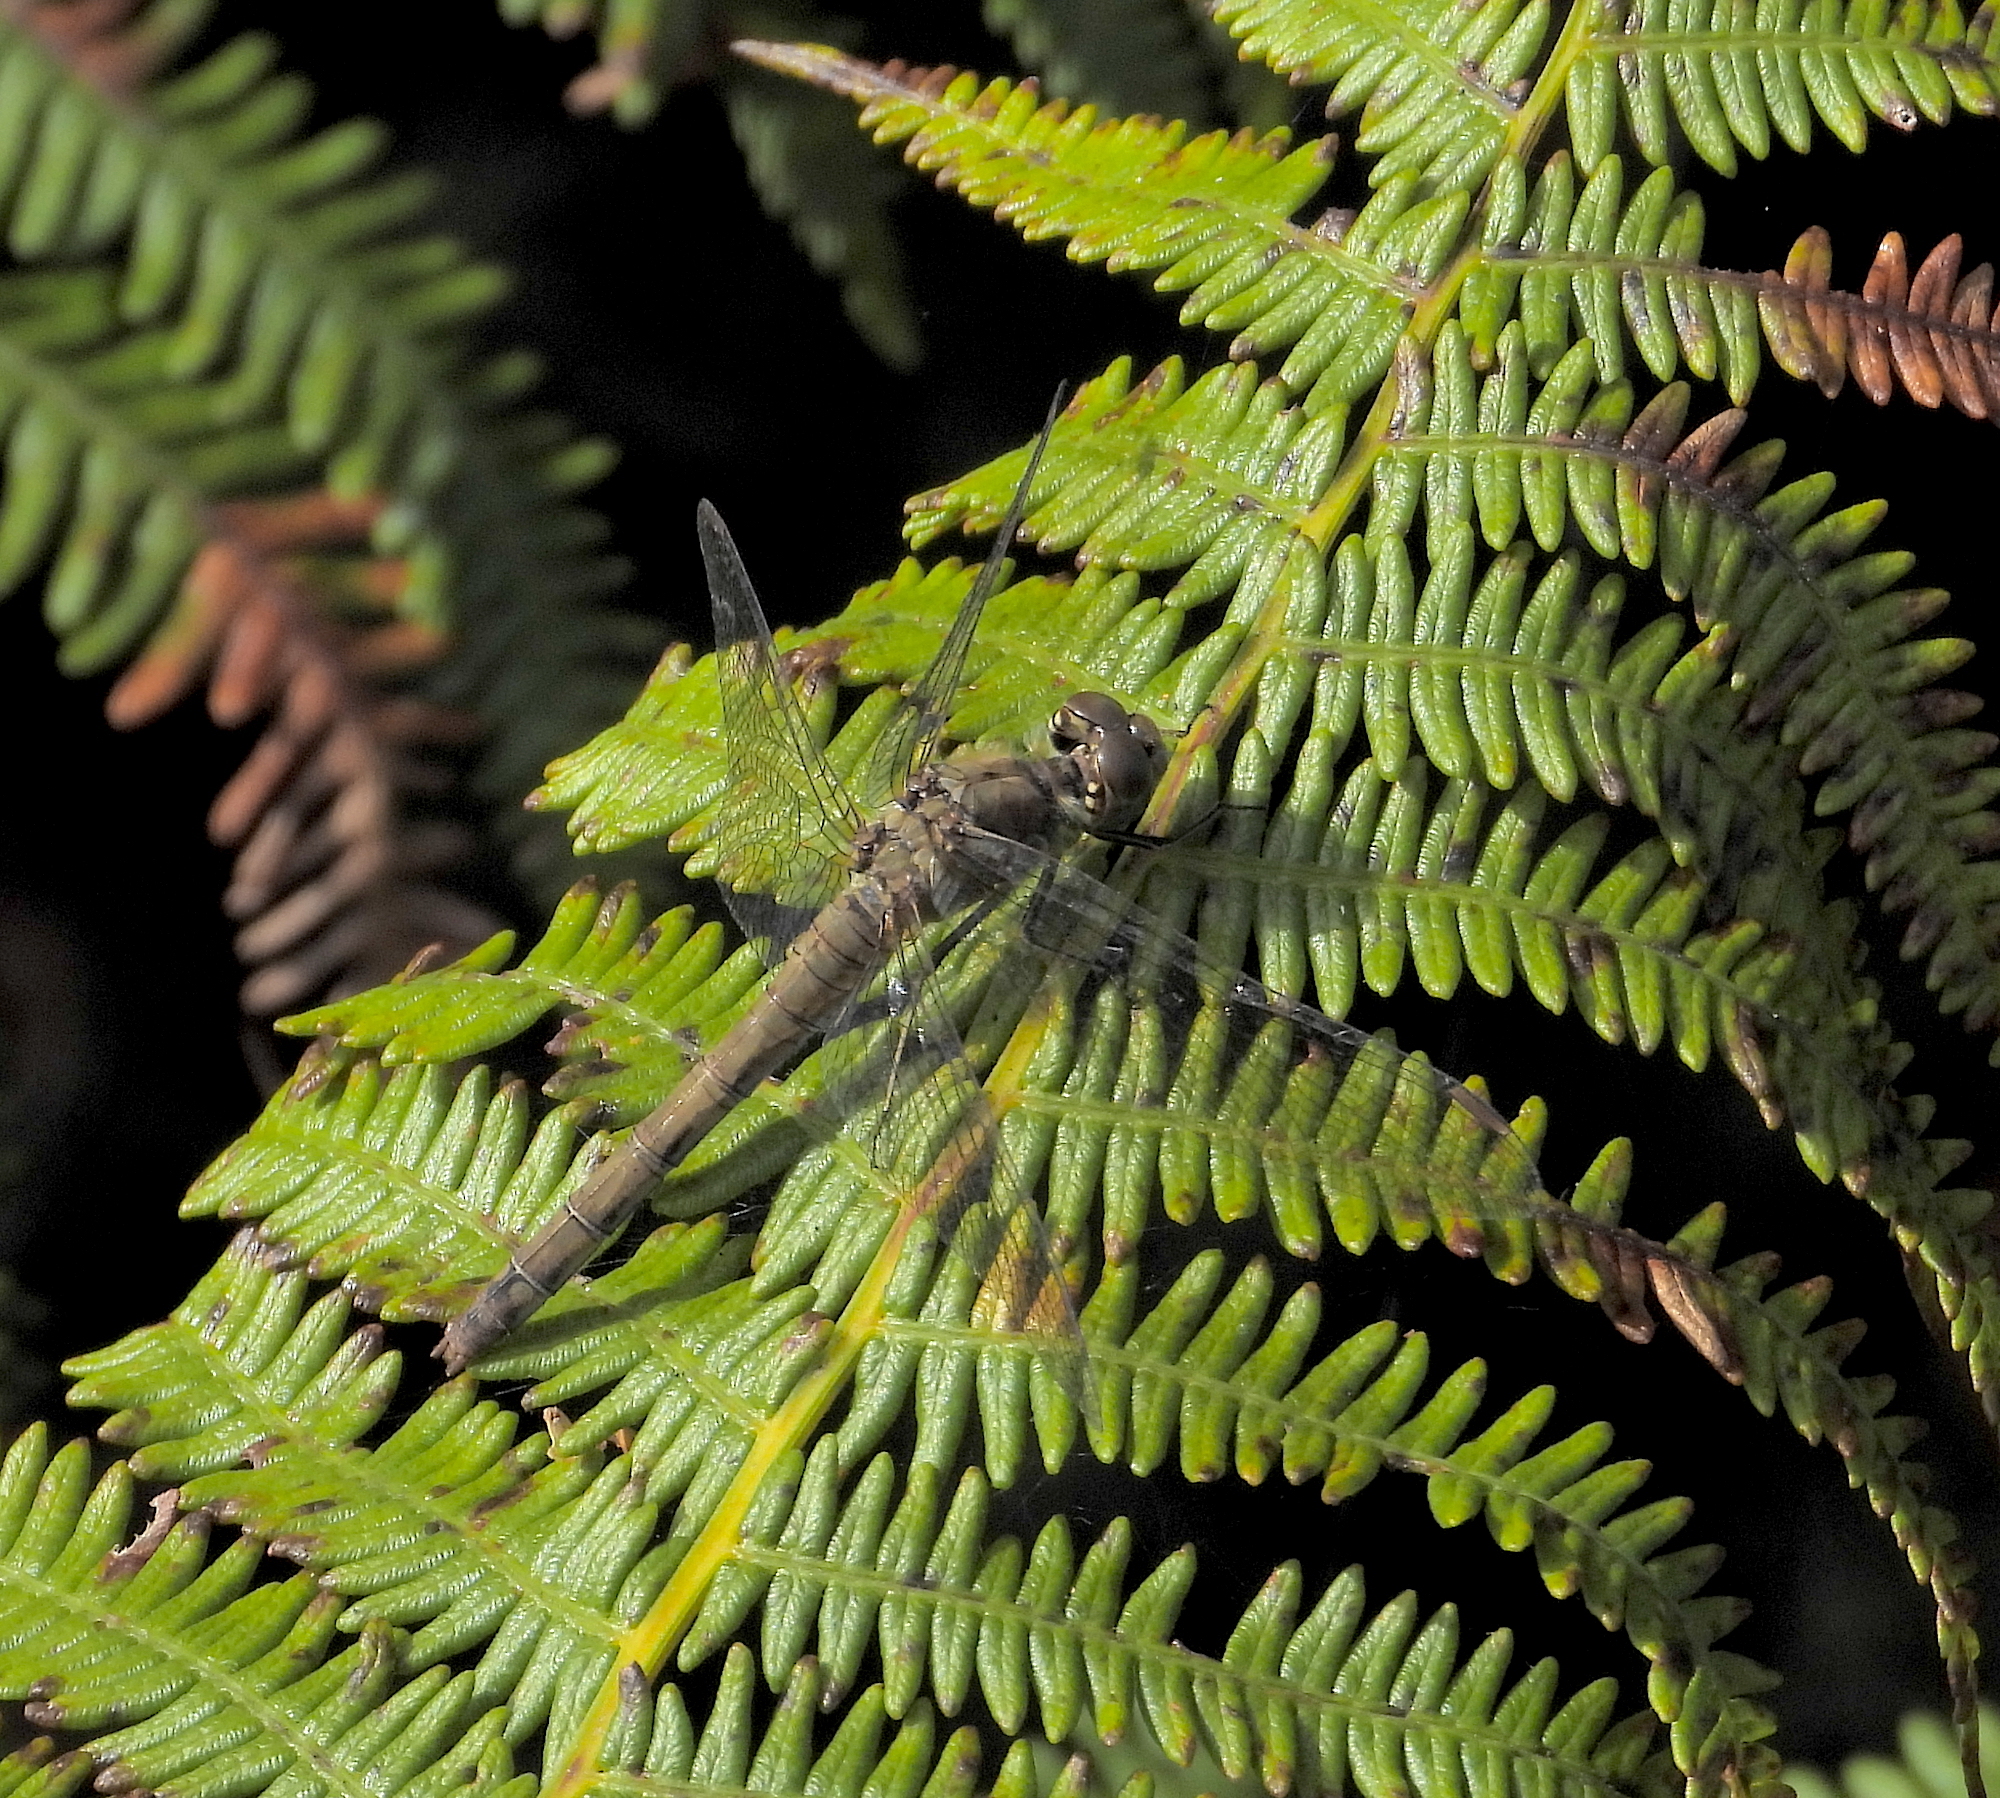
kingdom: Animalia
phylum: Arthropoda
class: Insecta
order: Odonata
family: Libellulidae
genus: Sympetrum
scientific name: Sympetrum striolatum
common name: Common darter
